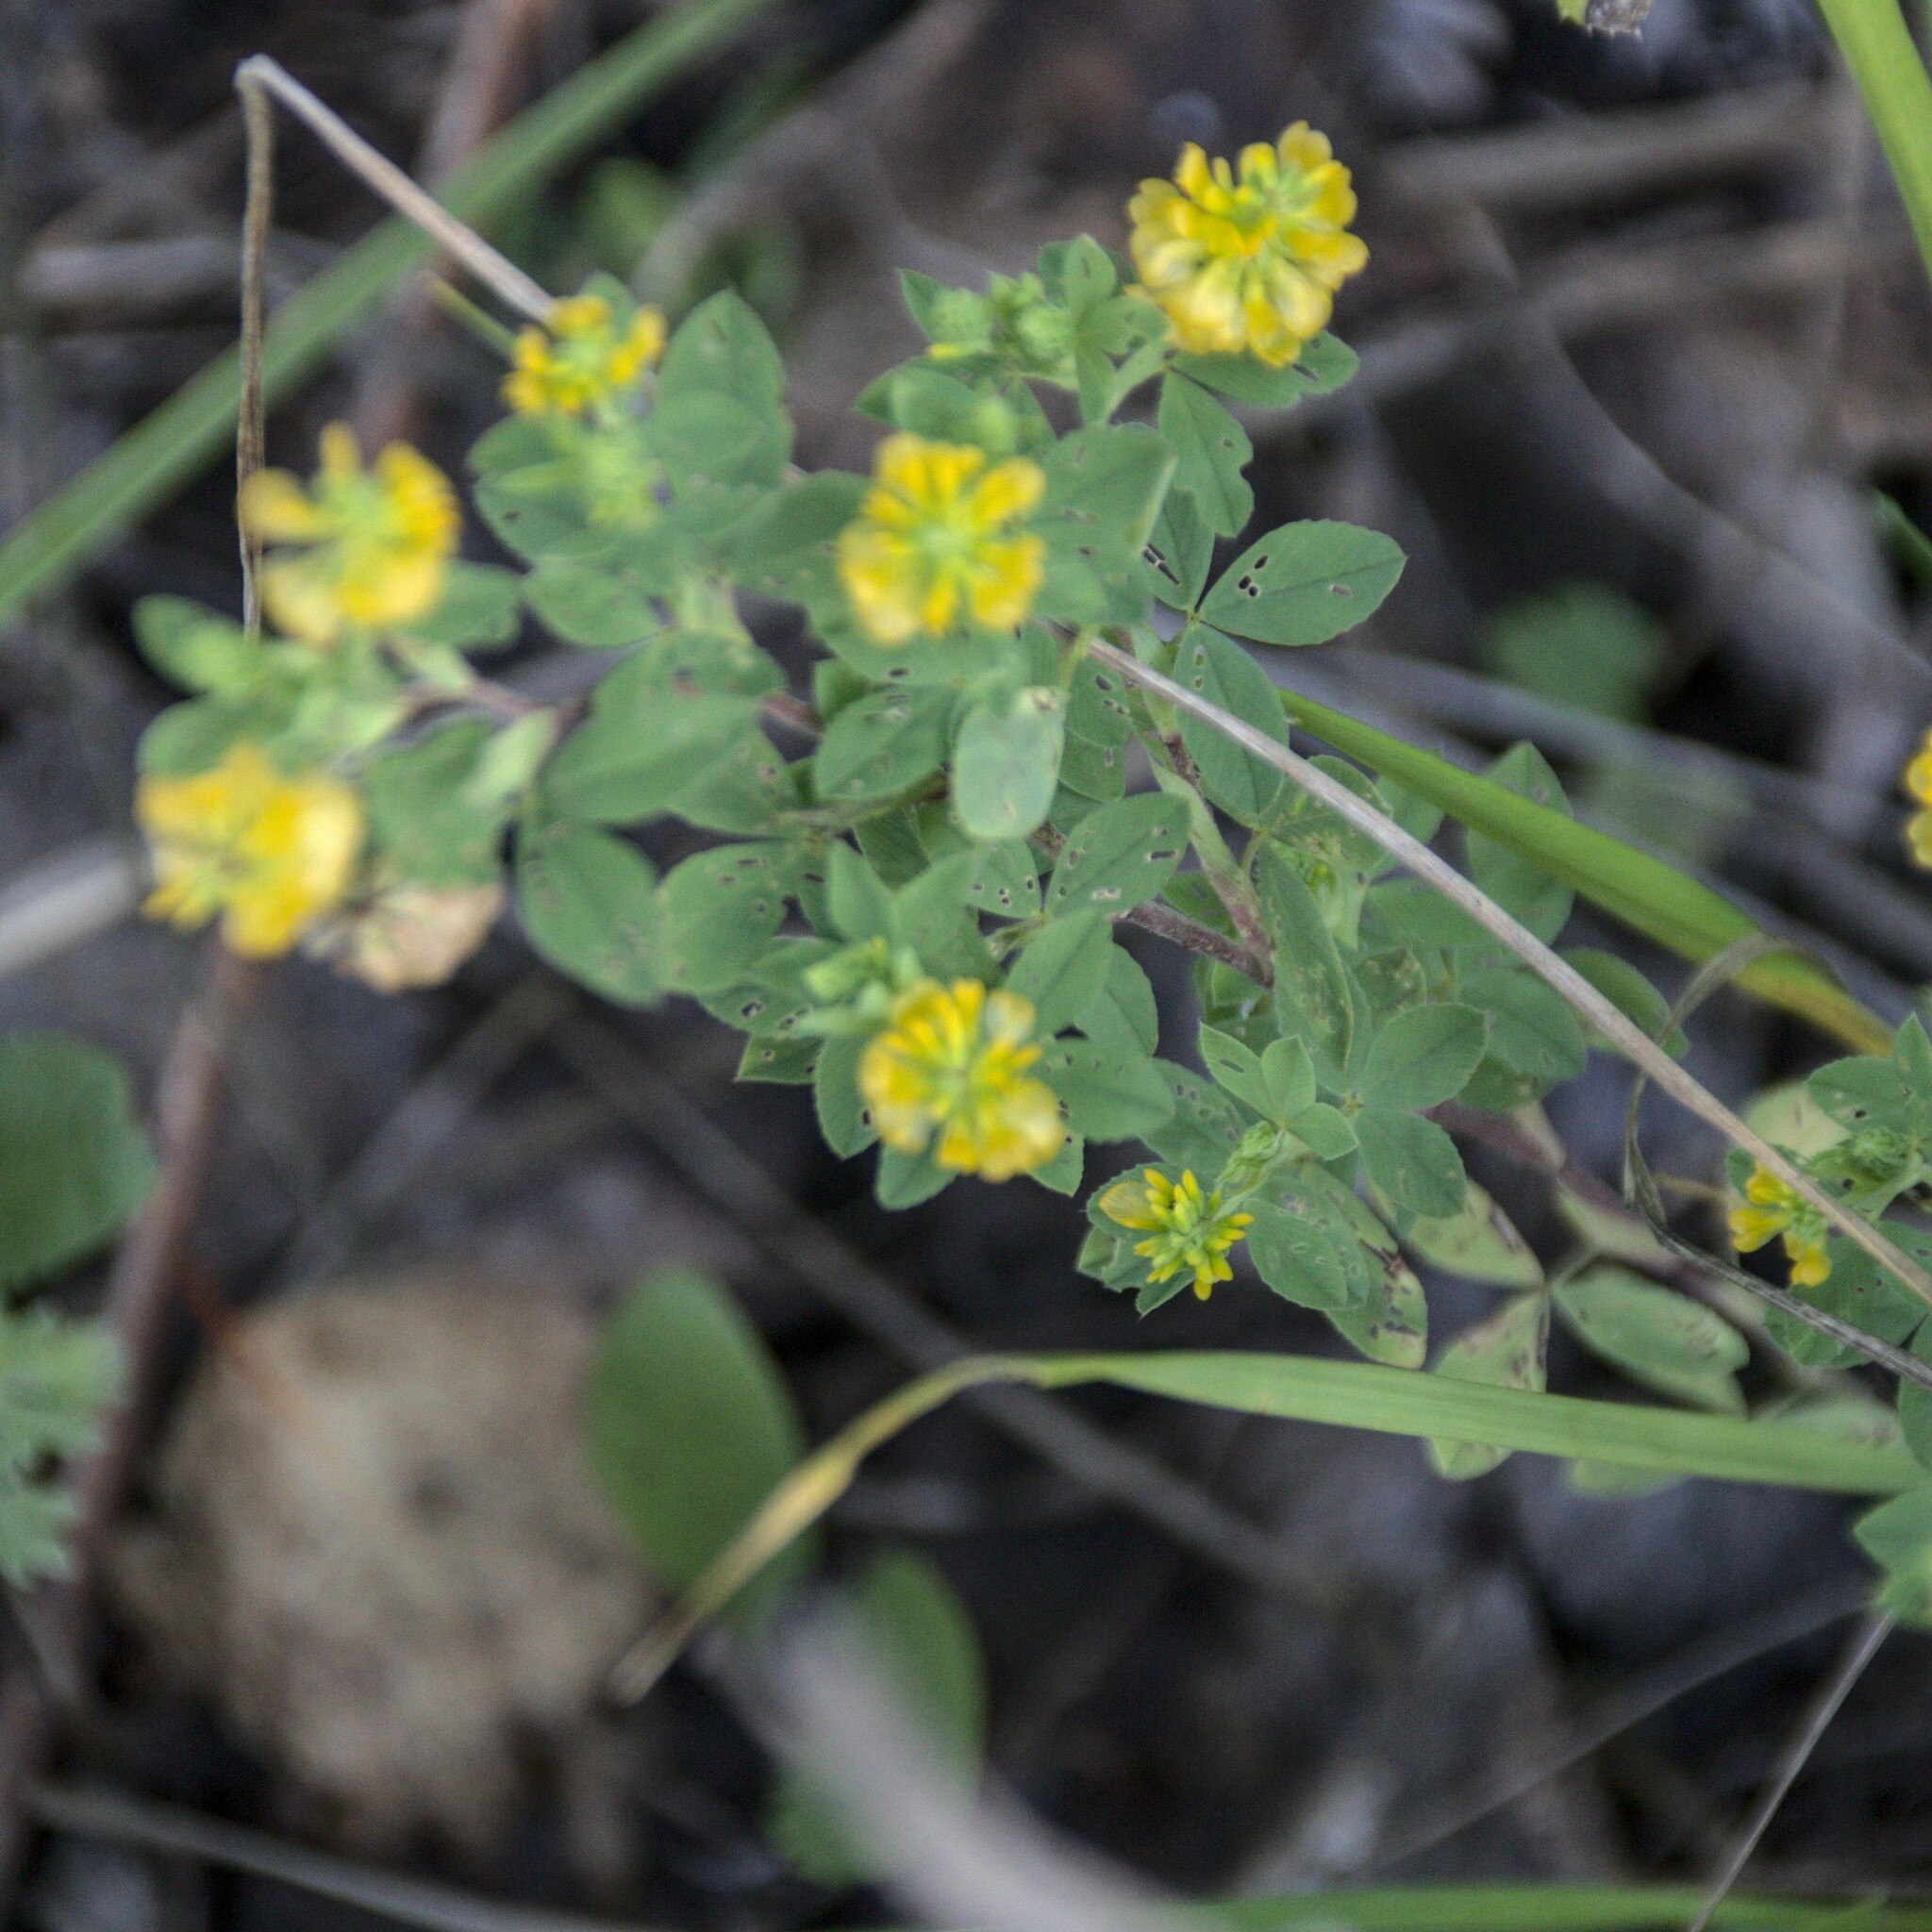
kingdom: Plantae
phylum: Tracheophyta
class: Magnoliopsida
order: Fabales
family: Fabaceae
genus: Trifolium
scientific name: Trifolium aureum
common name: Golden clover
